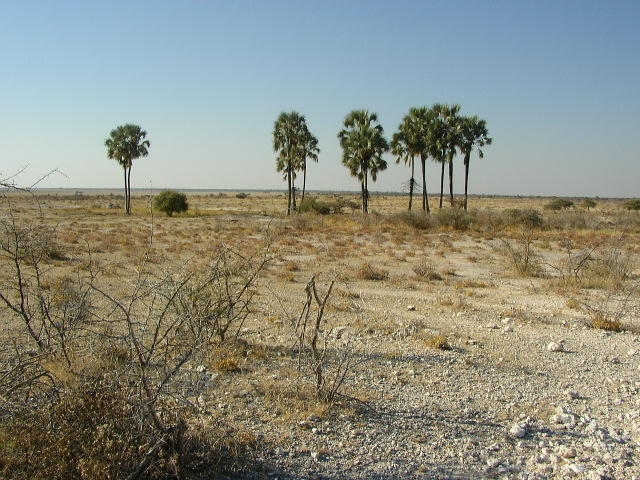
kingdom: Plantae
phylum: Tracheophyta
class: Liliopsida
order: Arecales
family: Arecaceae
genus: Hyphaene
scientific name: Hyphaene petersiana
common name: African ivory nut palm
